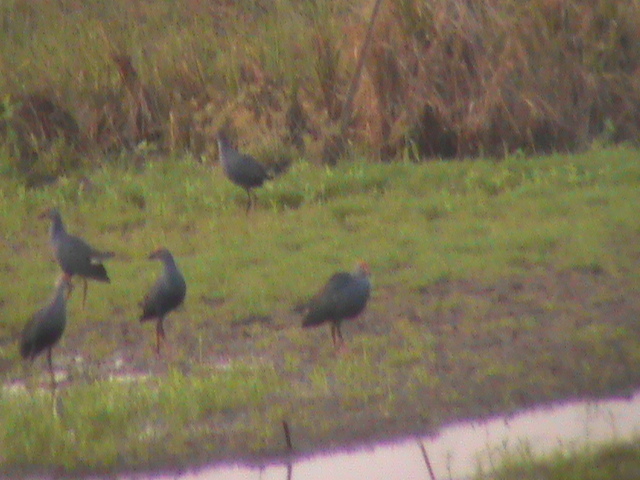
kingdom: Animalia
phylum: Chordata
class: Aves
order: Gruiformes
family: Rallidae
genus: Porphyrio
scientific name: Porphyrio porphyrio
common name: Purple swamphen
